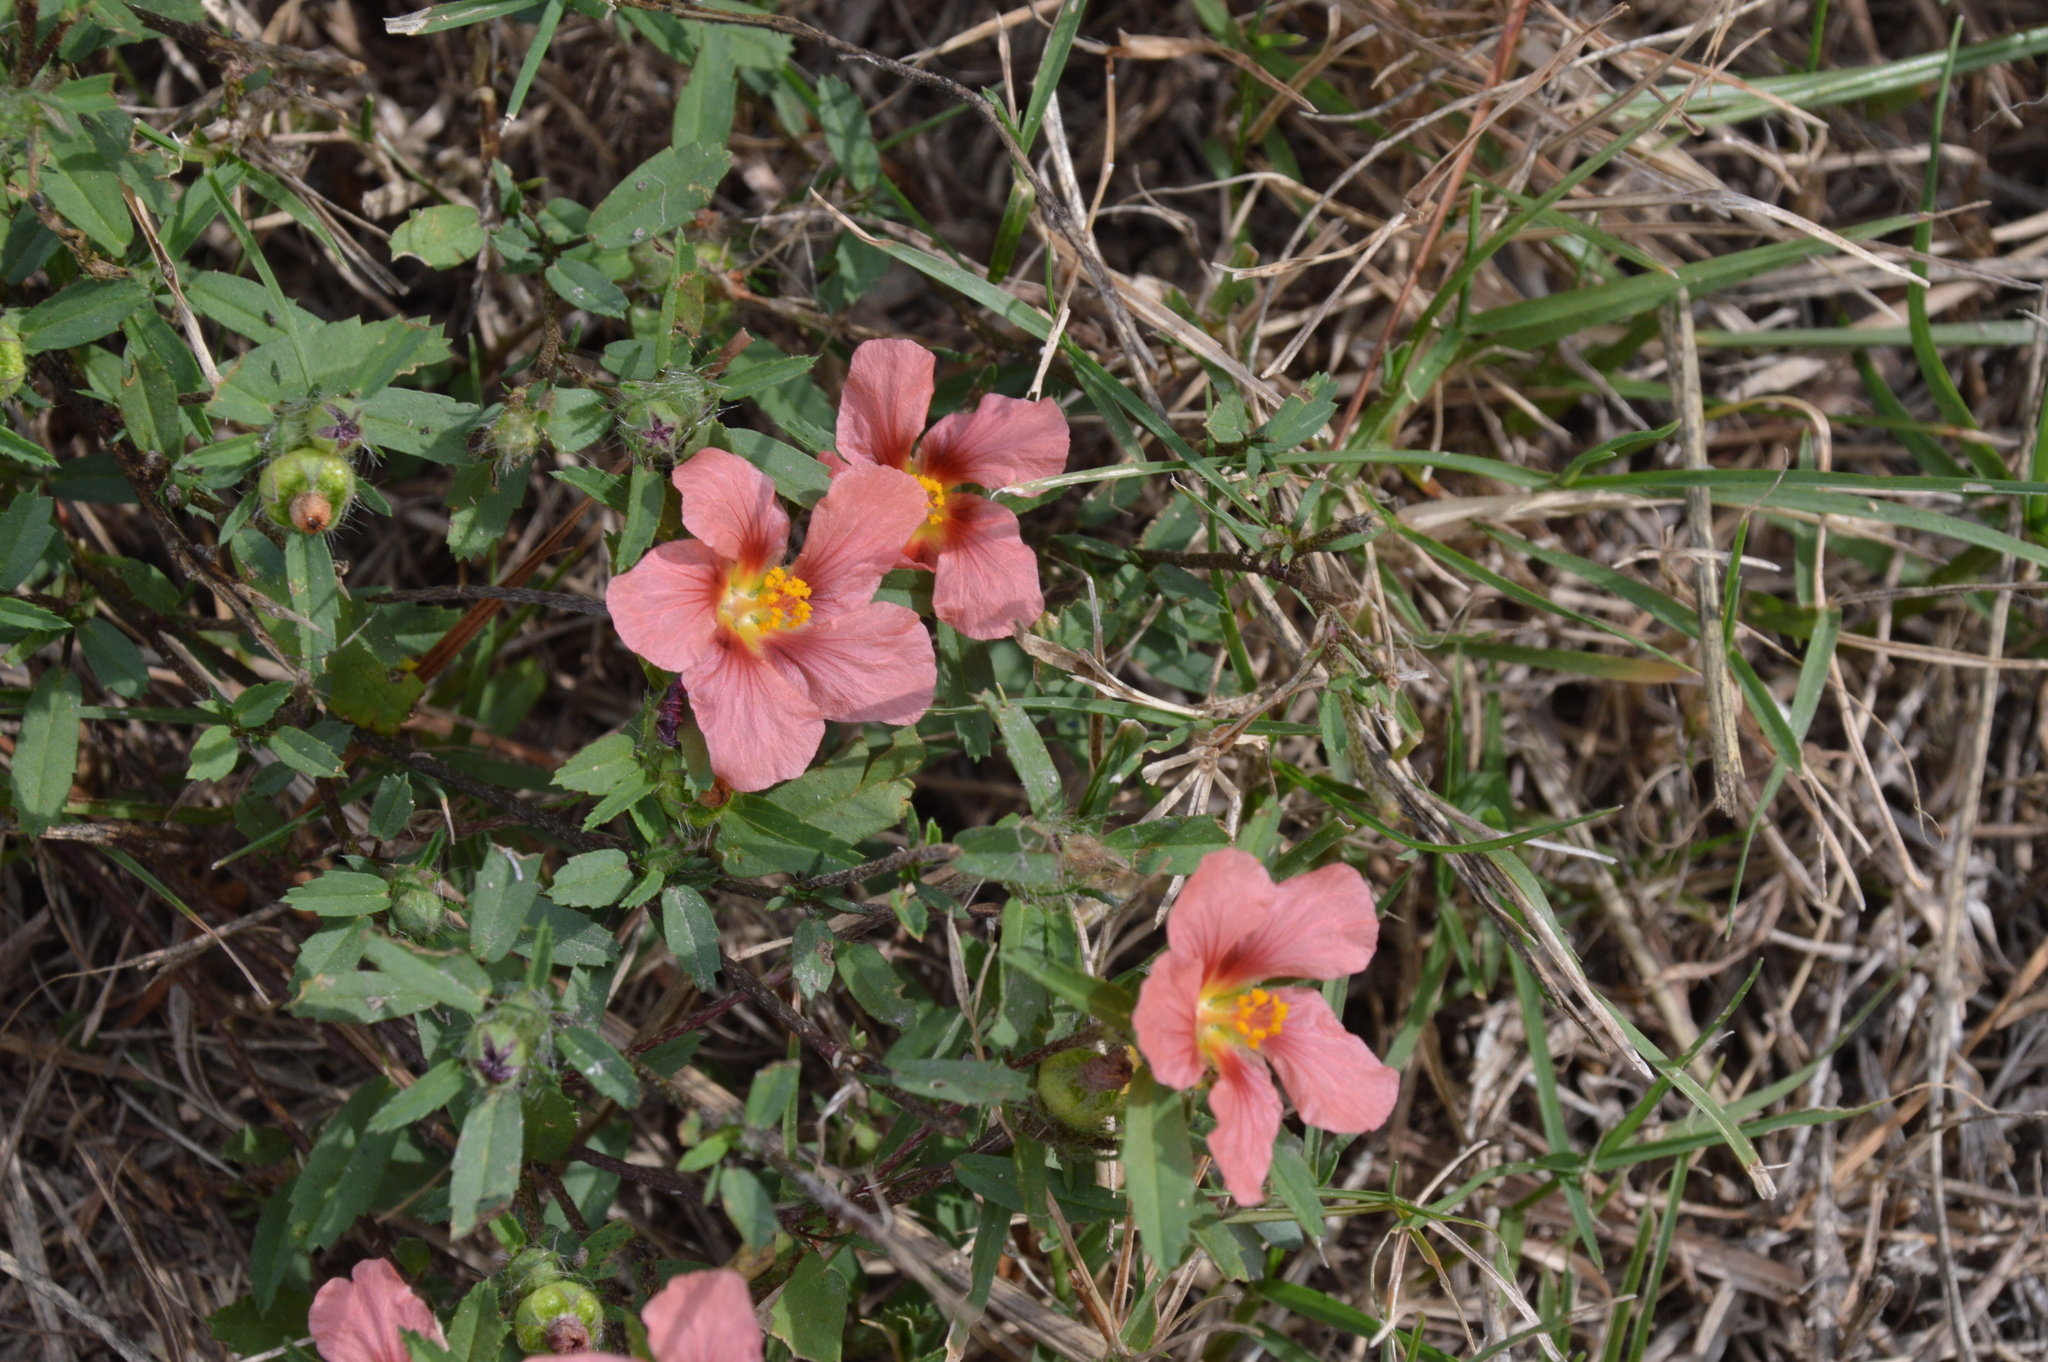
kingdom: Plantae
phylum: Tracheophyta
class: Magnoliopsida
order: Malvales
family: Malvaceae
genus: Sida
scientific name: Sida ciliaris
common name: Bracted fanpetals
